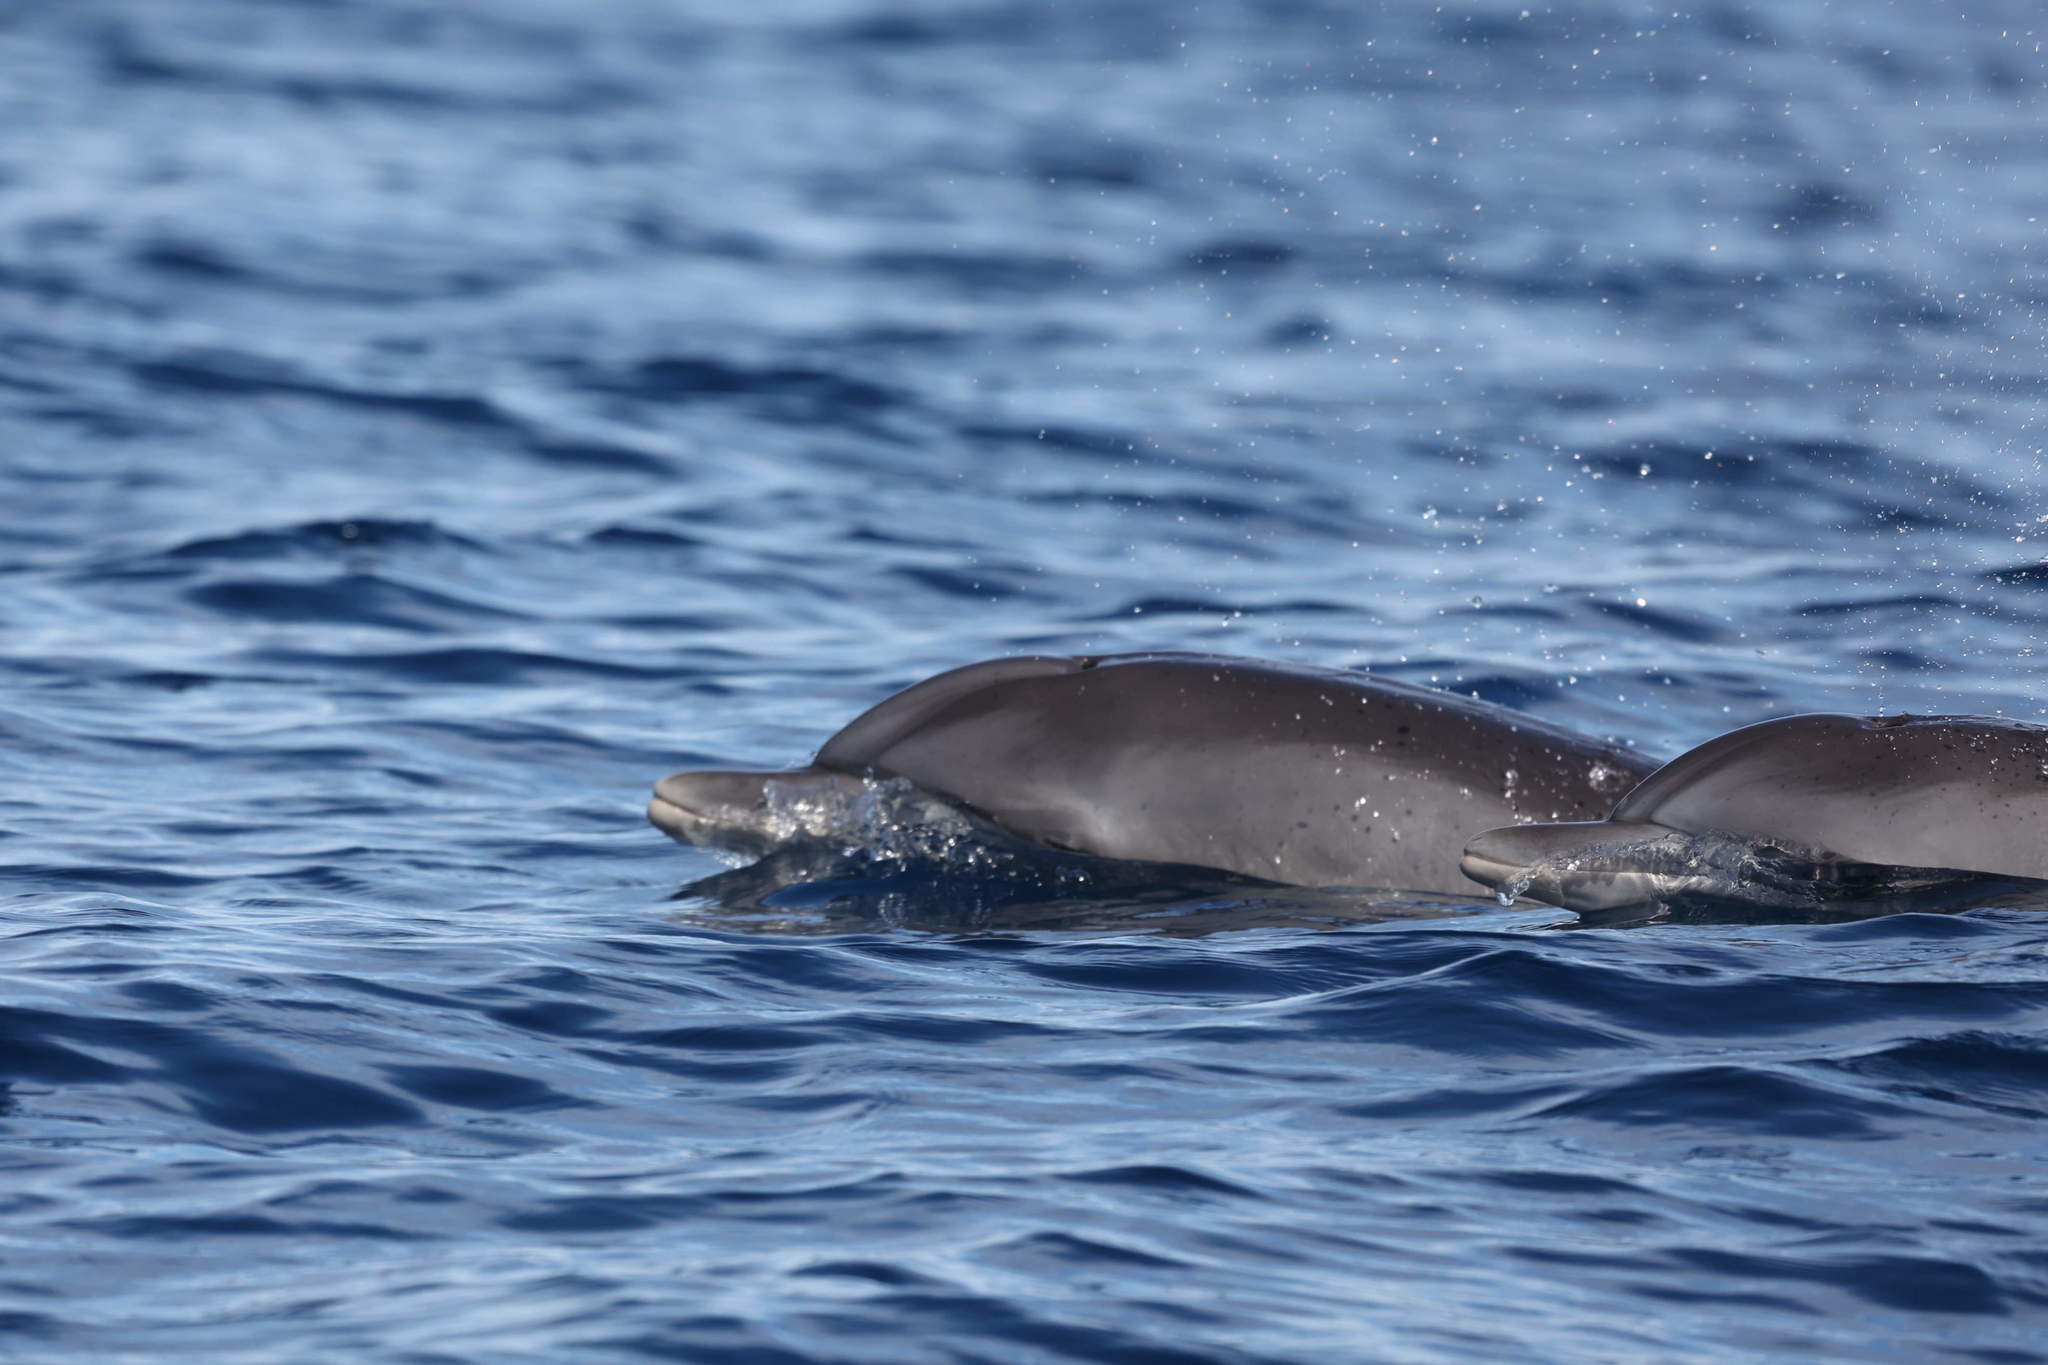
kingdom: Animalia
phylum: Chordata
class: Mammalia
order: Cetacea
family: Delphinidae
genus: Stenella
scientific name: Stenella frontalis
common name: Atlantic spotted dolphin
